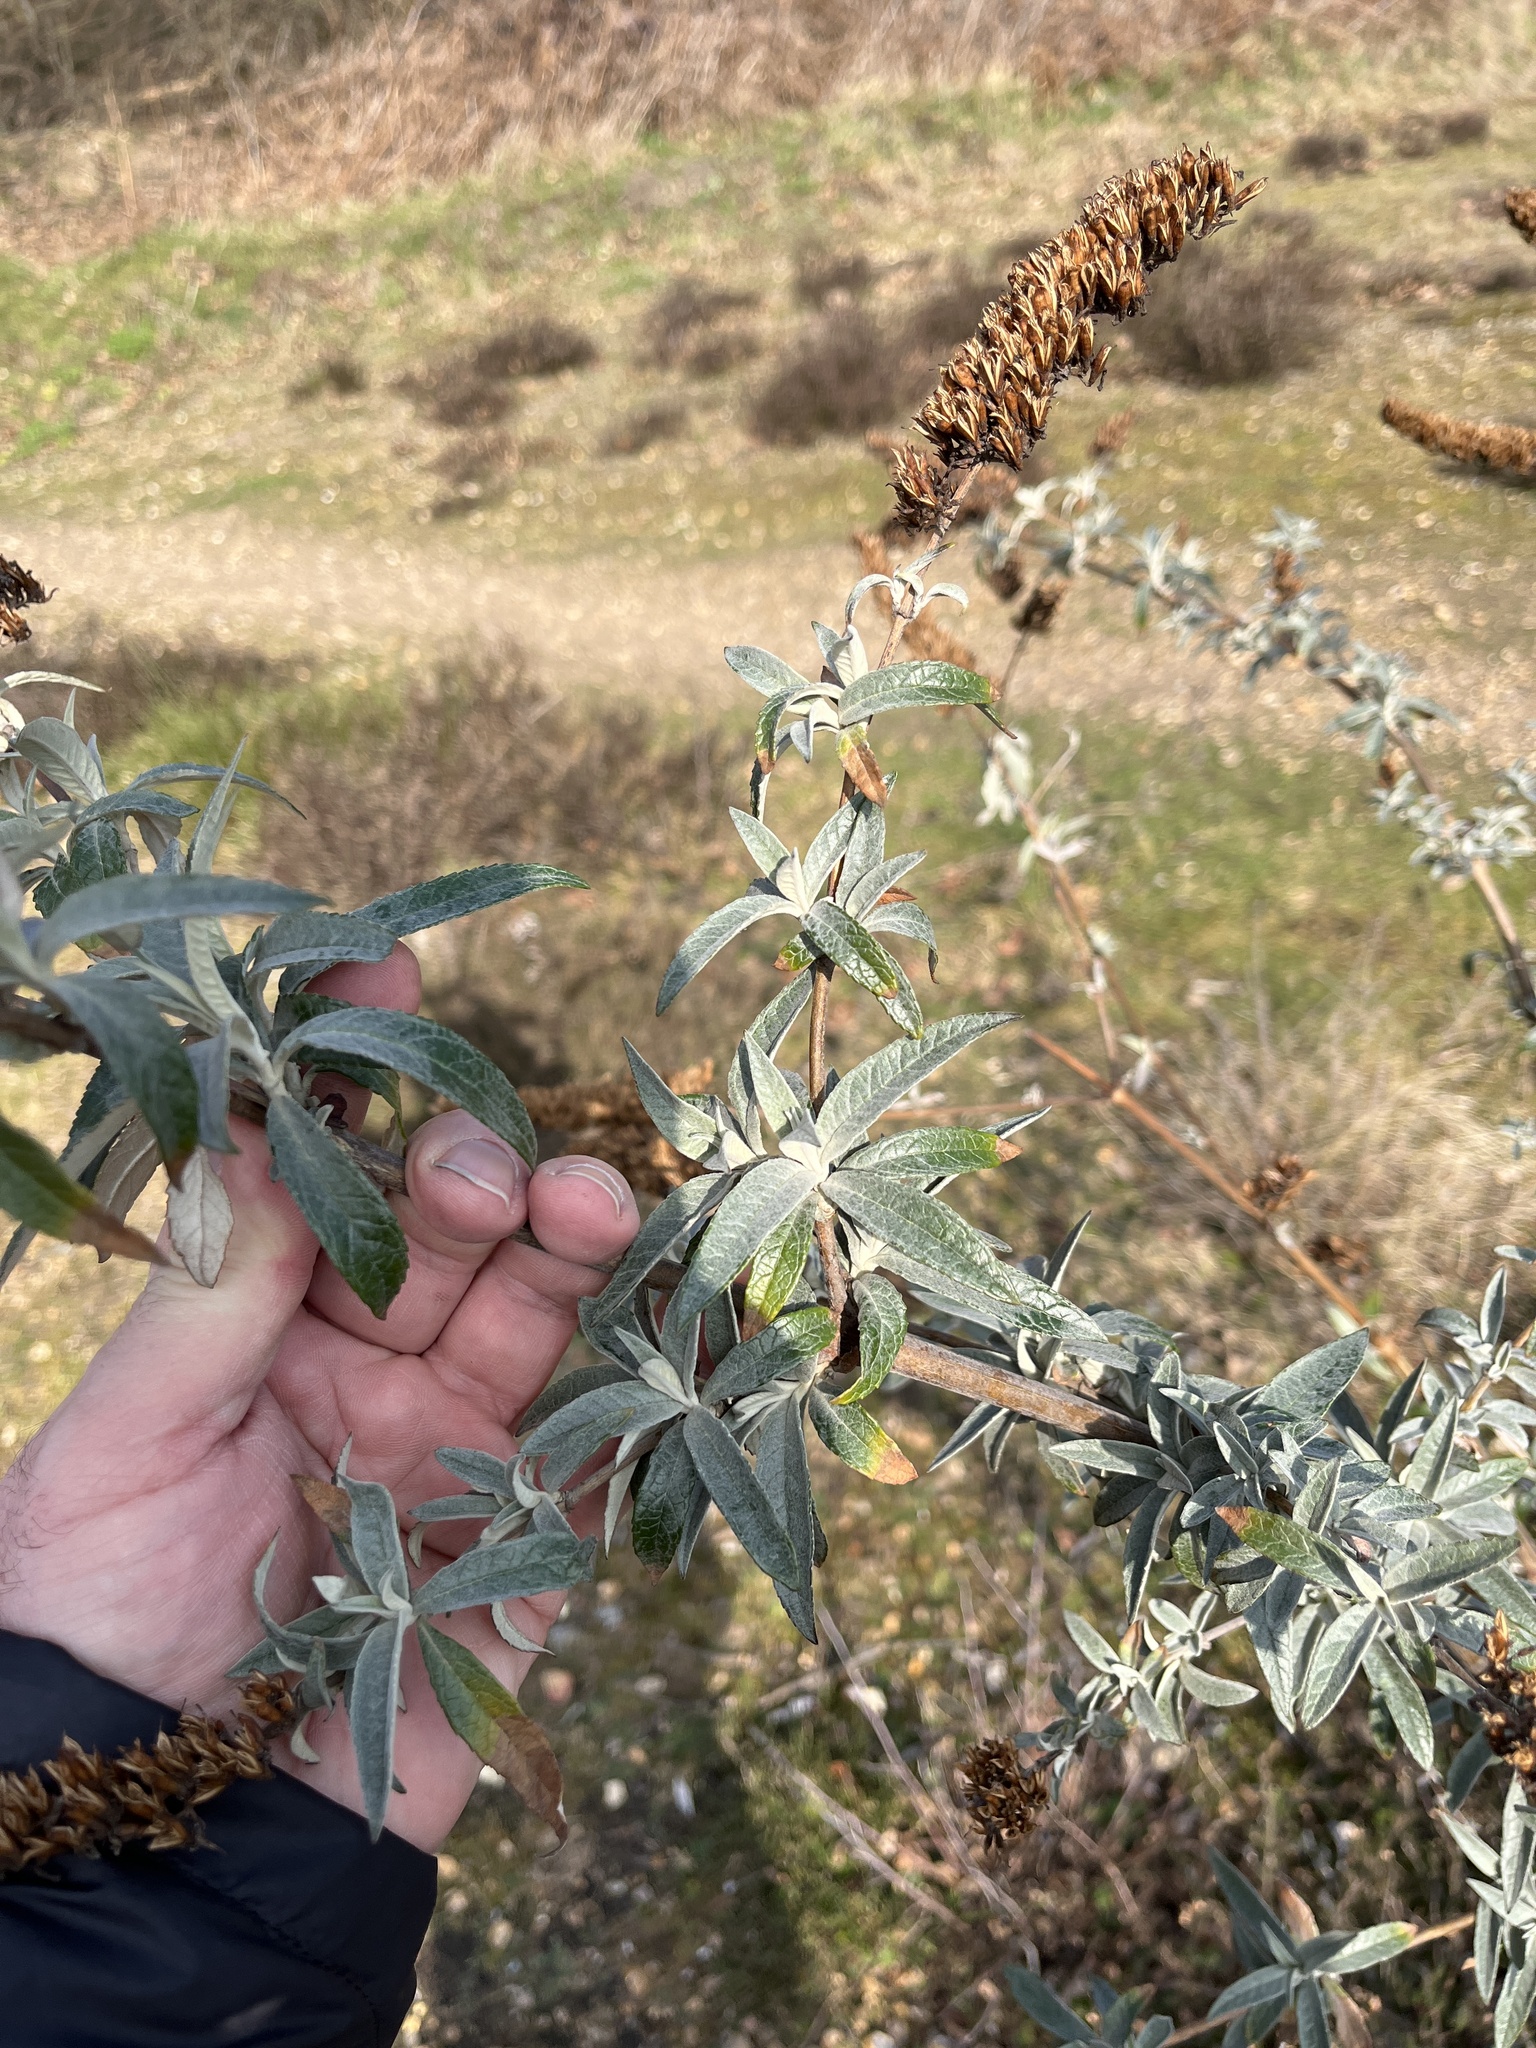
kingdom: Plantae
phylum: Tracheophyta
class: Magnoliopsida
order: Lamiales
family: Scrophulariaceae
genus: Buddleja
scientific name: Buddleja davidii
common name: Butterfly-bush
